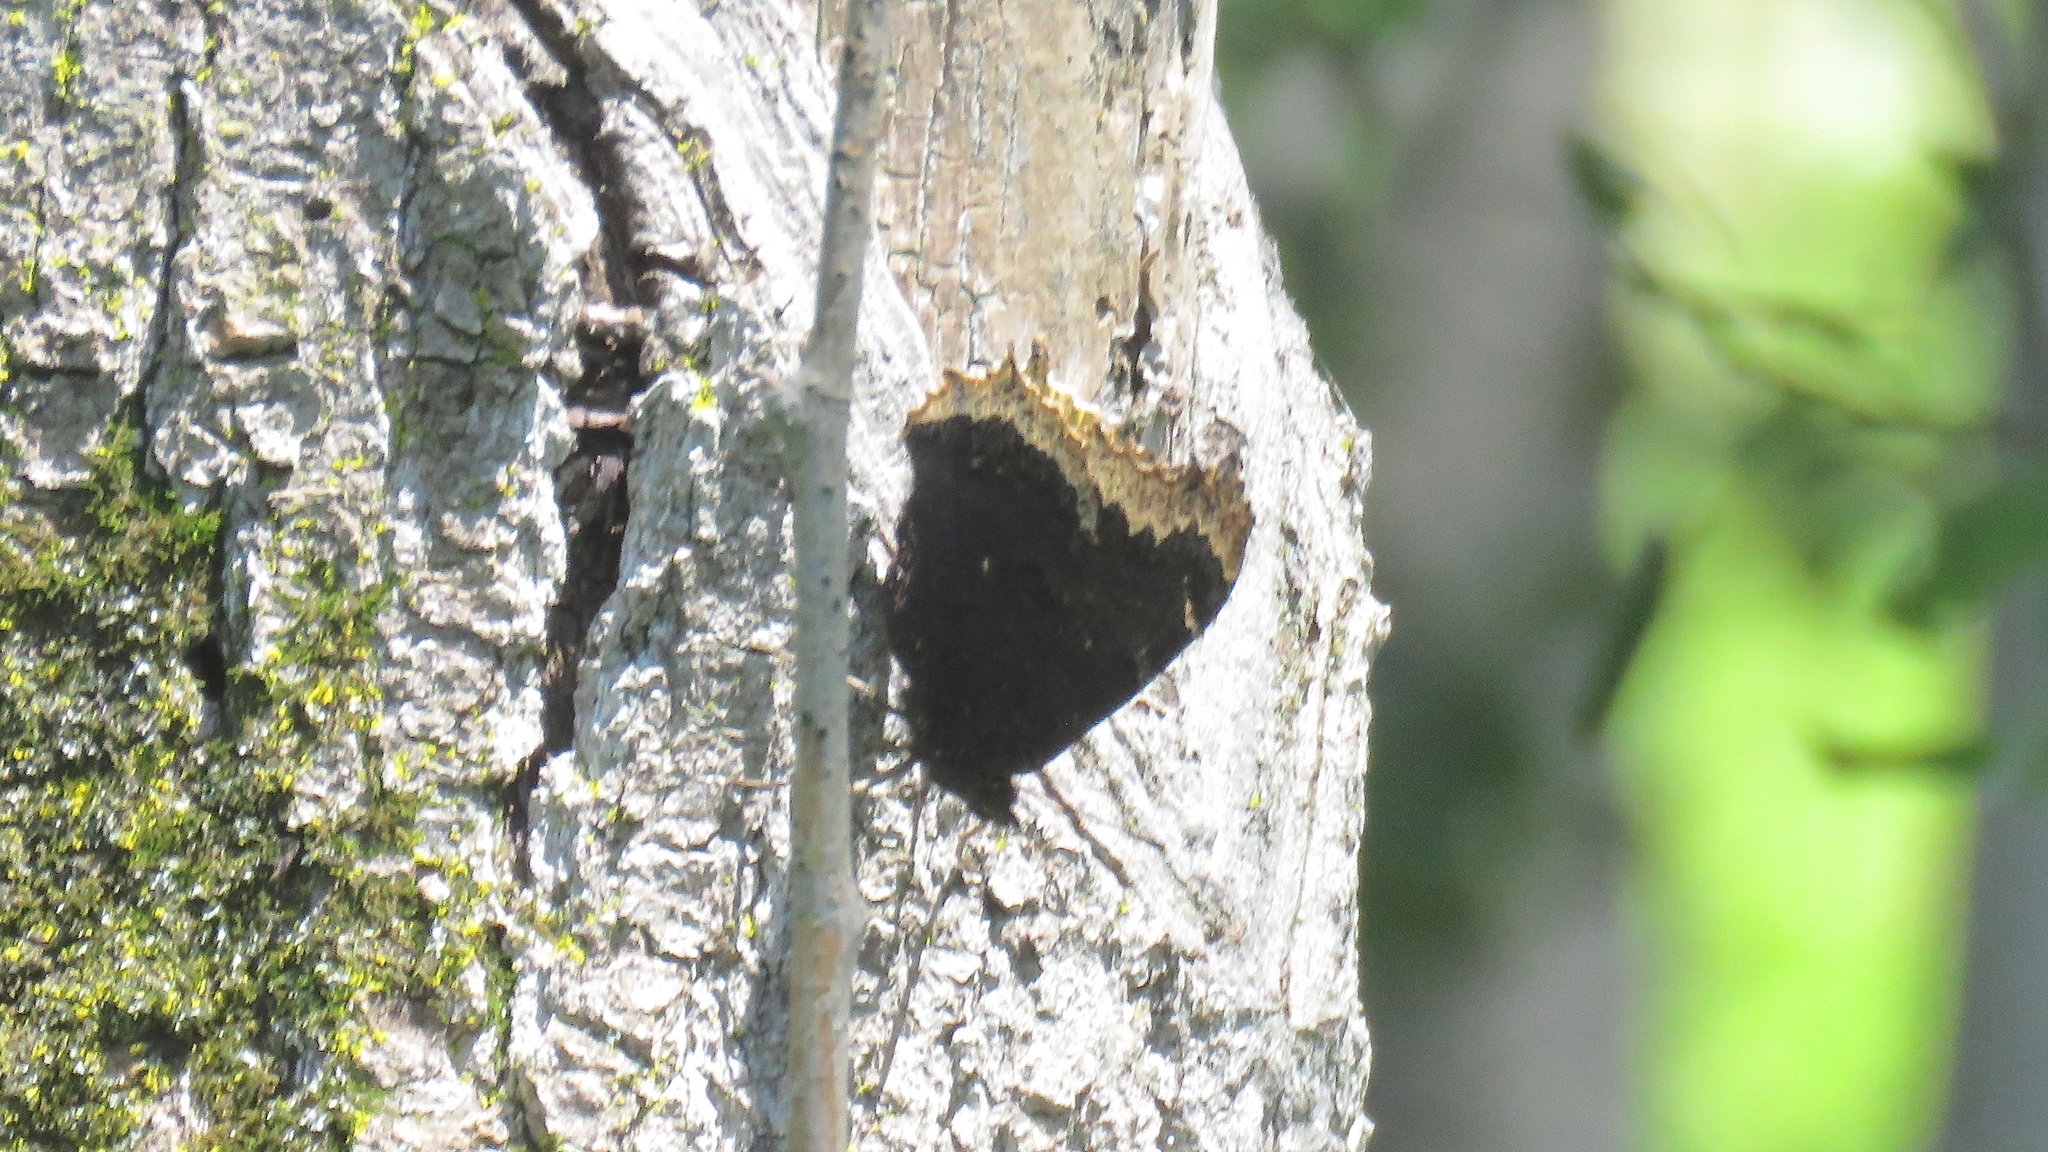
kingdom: Animalia
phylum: Arthropoda
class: Insecta
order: Lepidoptera
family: Nymphalidae
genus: Nymphalis
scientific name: Nymphalis antiopa
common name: Camberwell beauty
